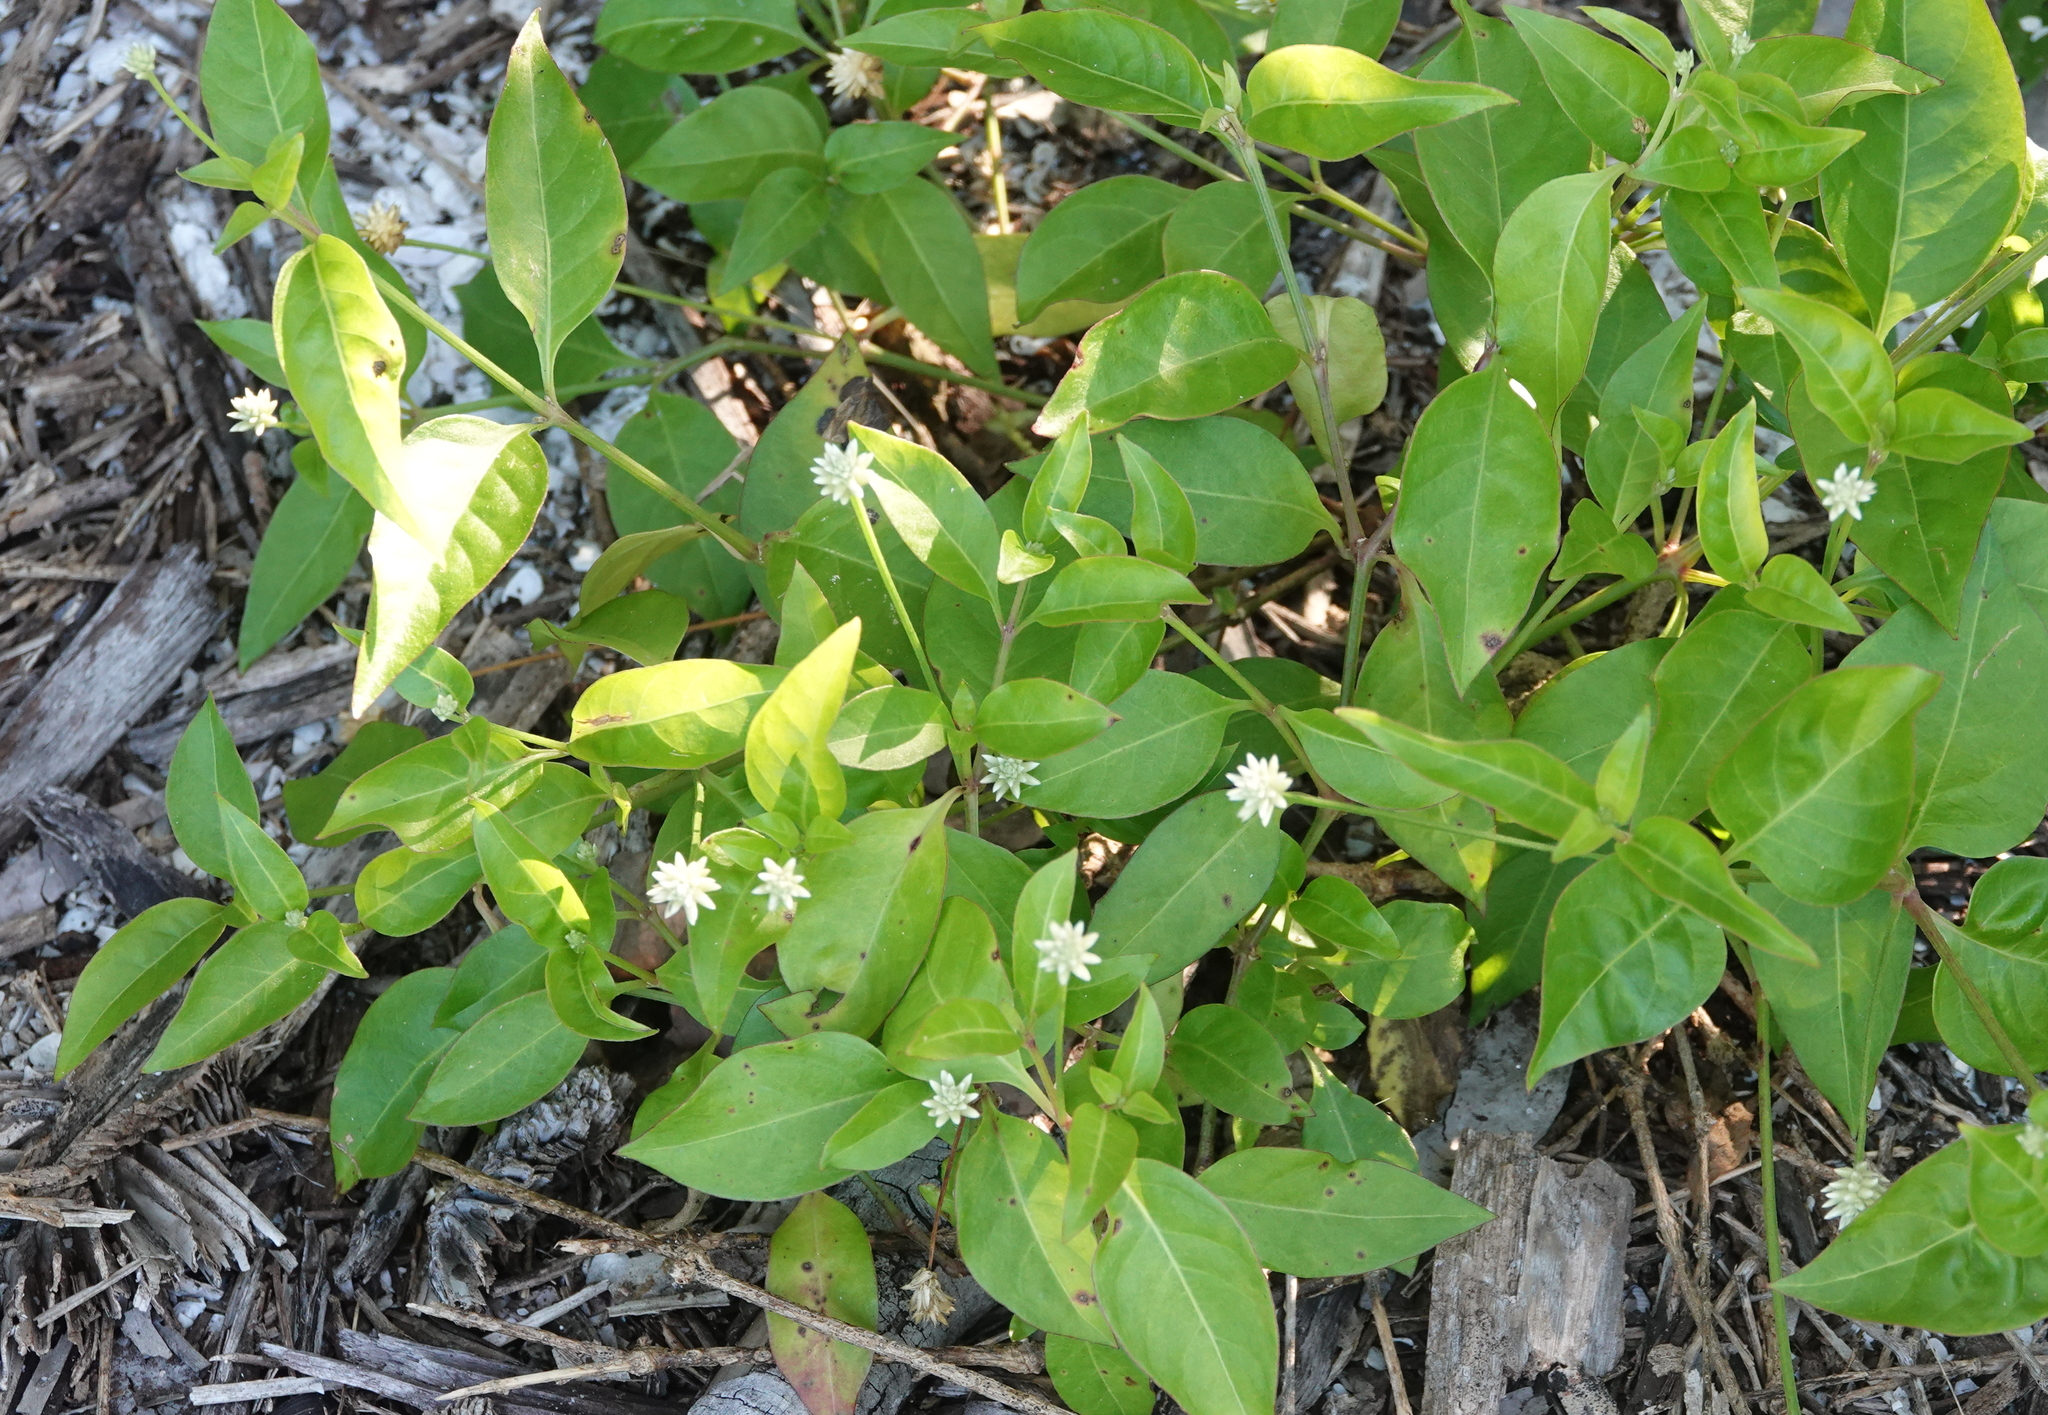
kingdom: Plantae
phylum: Tracheophyta
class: Magnoliopsida
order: Caryophyllales
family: Amaranthaceae
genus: Gomphrena
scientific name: Gomphrena serrata
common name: Arrasa con todo
